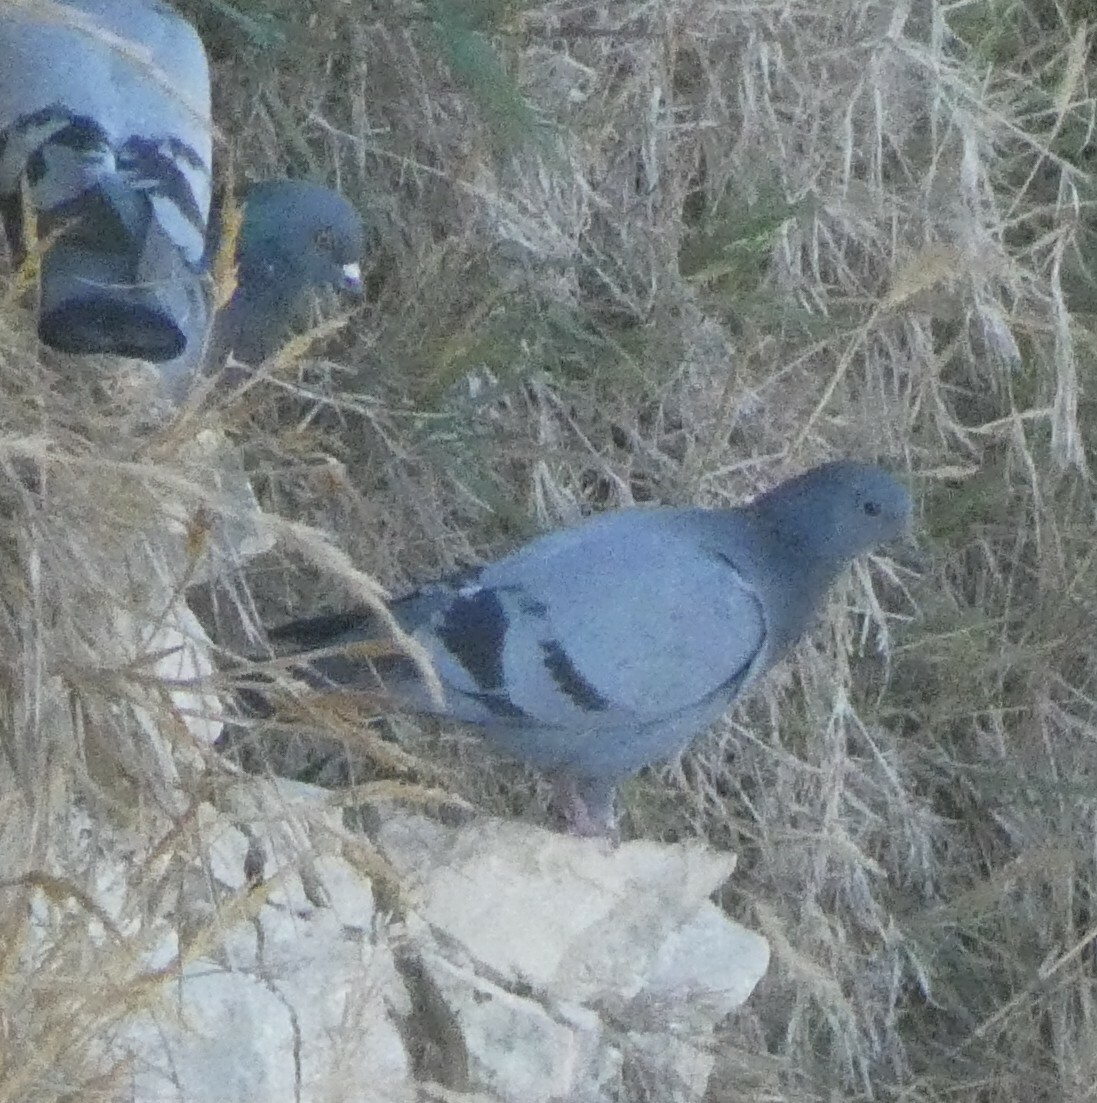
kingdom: Animalia
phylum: Chordata
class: Aves
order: Columbiformes
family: Columbidae
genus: Columba
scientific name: Columba livia
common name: Rock pigeon
